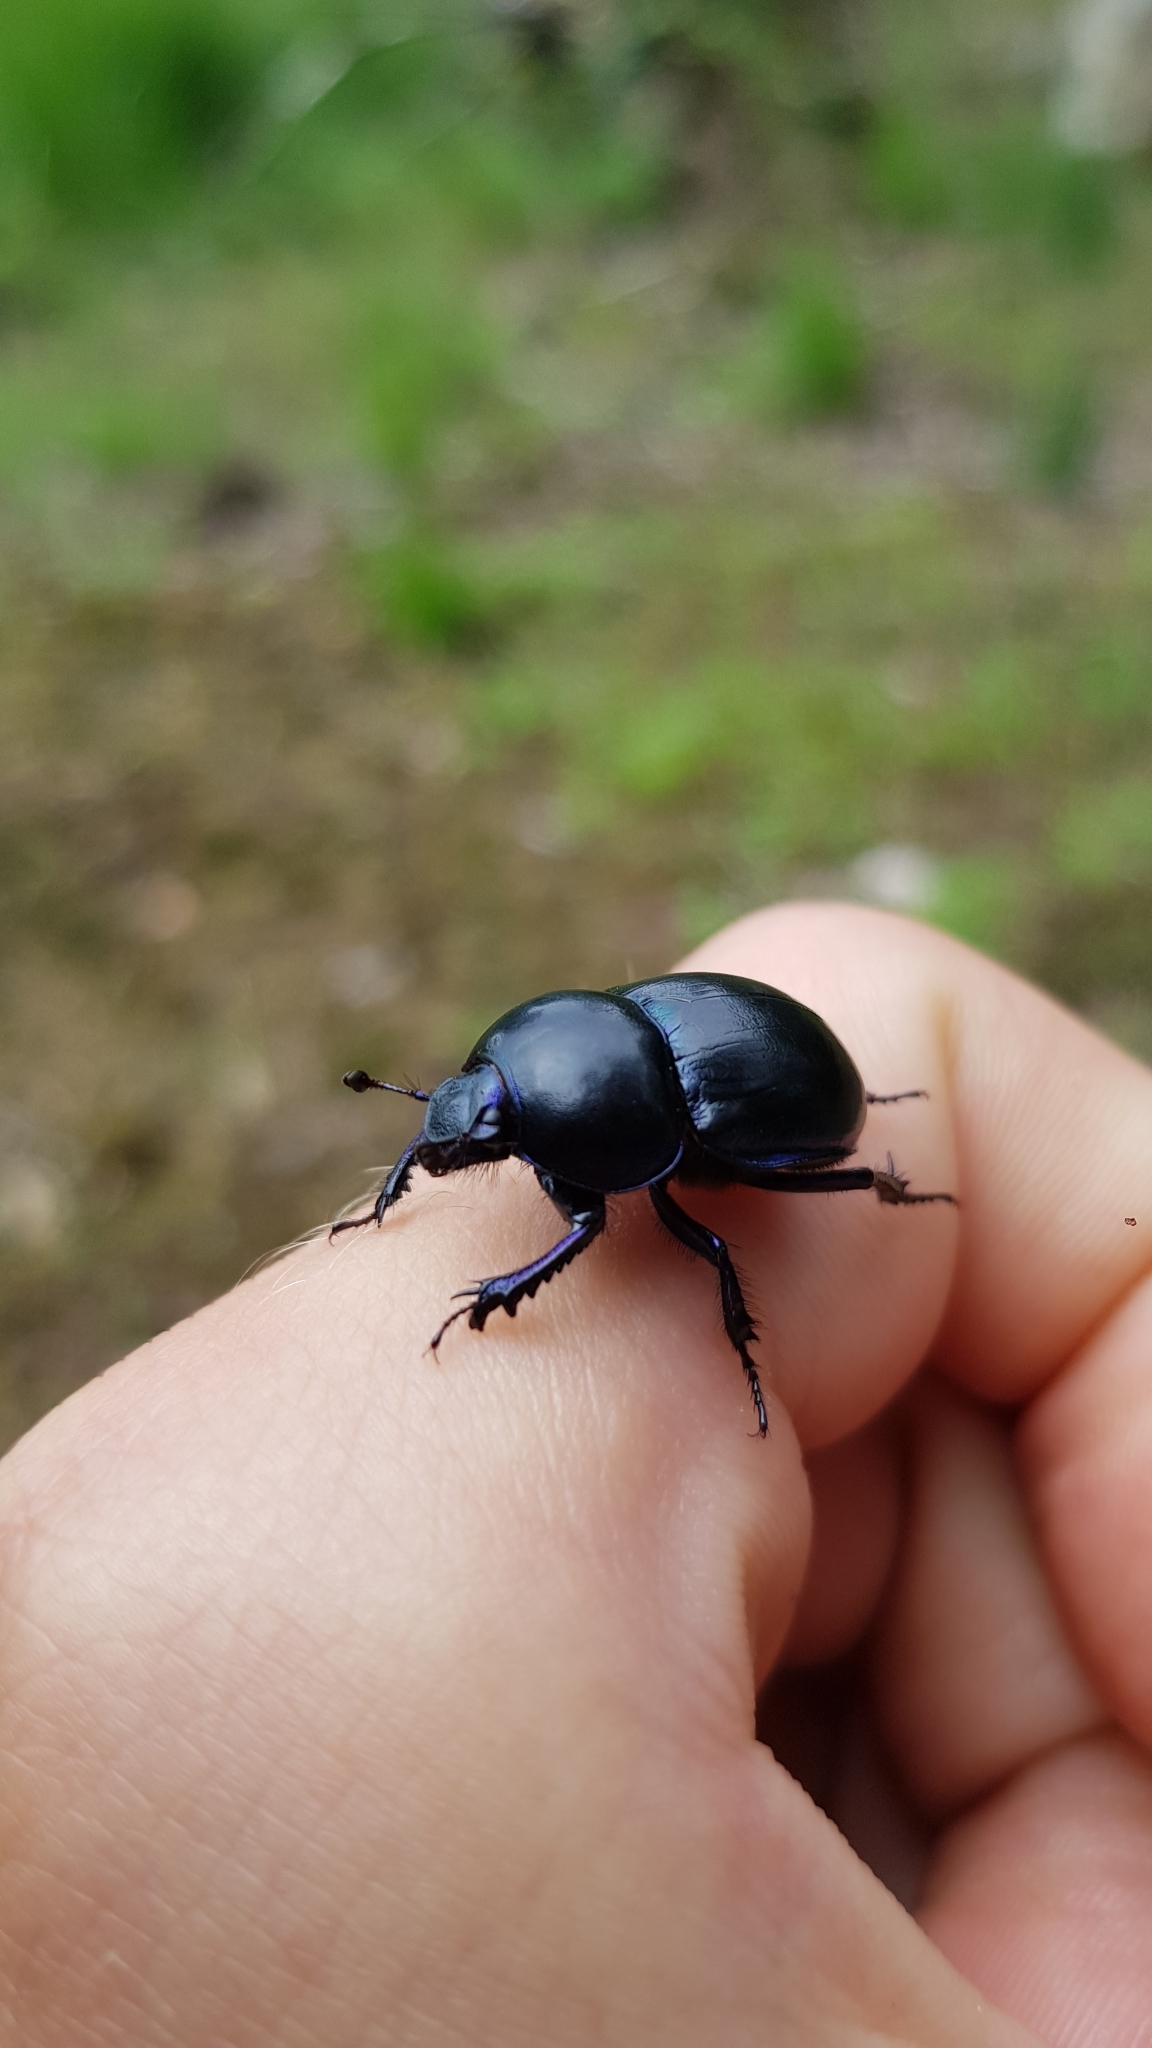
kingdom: Animalia
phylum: Arthropoda
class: Insecta
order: Coleoptera
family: Geotrupidae
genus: Trypocopris
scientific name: Trypocopris vernalis
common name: Spring dumbledor
